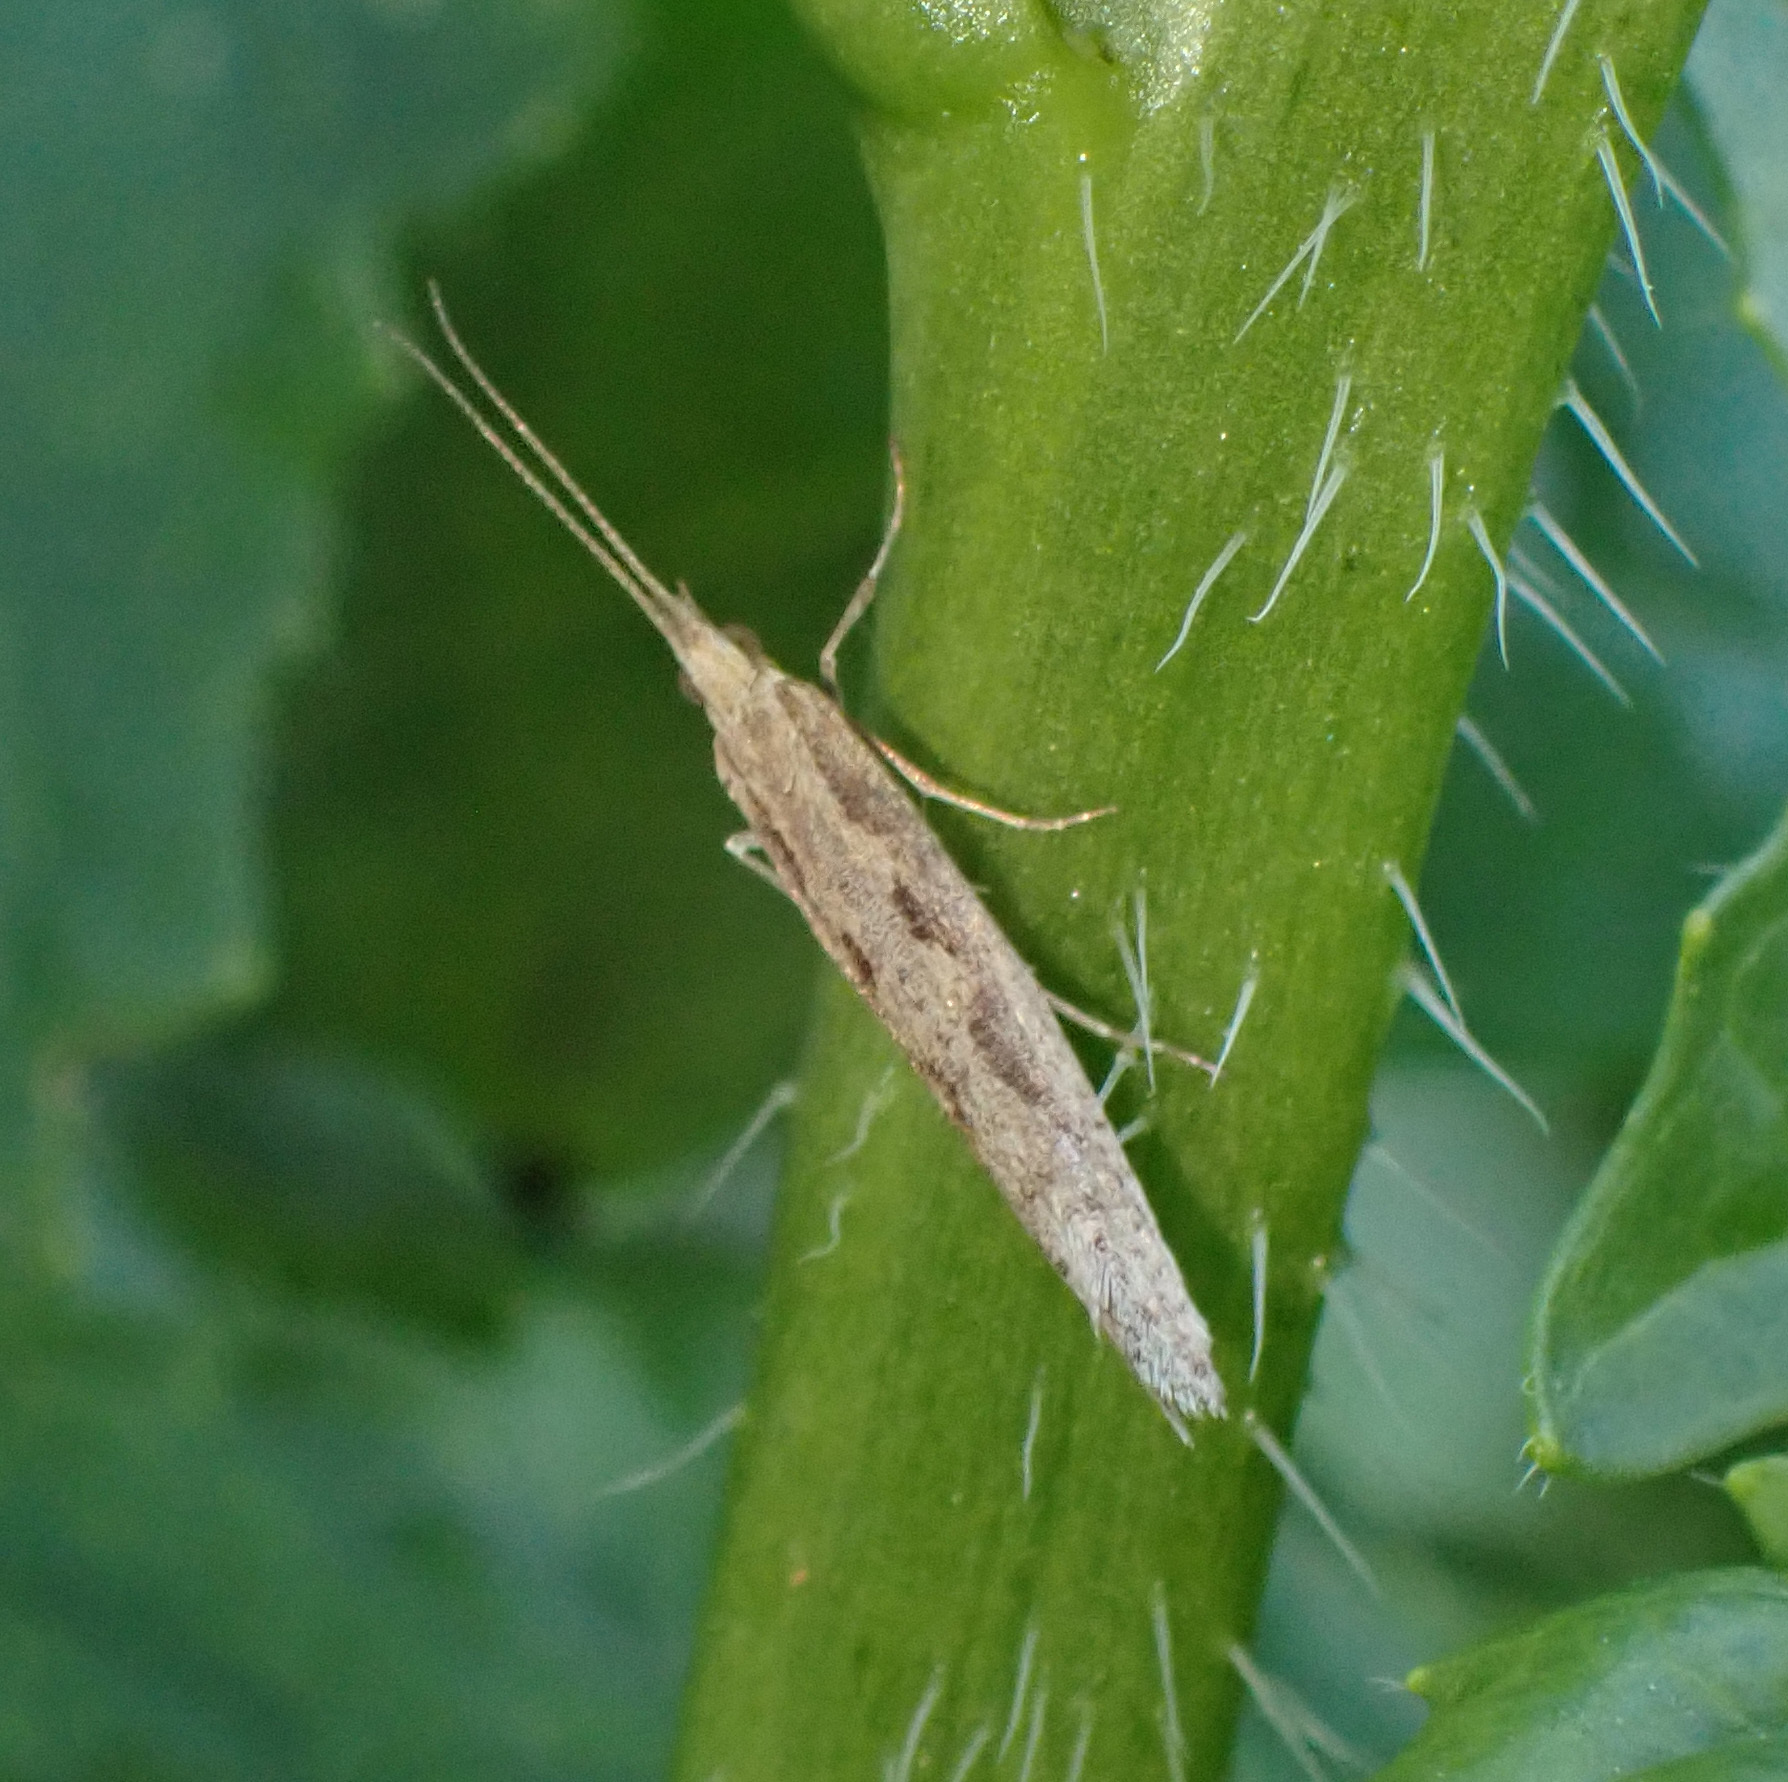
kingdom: Animalia
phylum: Arthropoda
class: Insecta
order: Lepidoptera
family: Plutellidae
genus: Plutella
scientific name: Plutella xylostella
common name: Diamond-back moth
